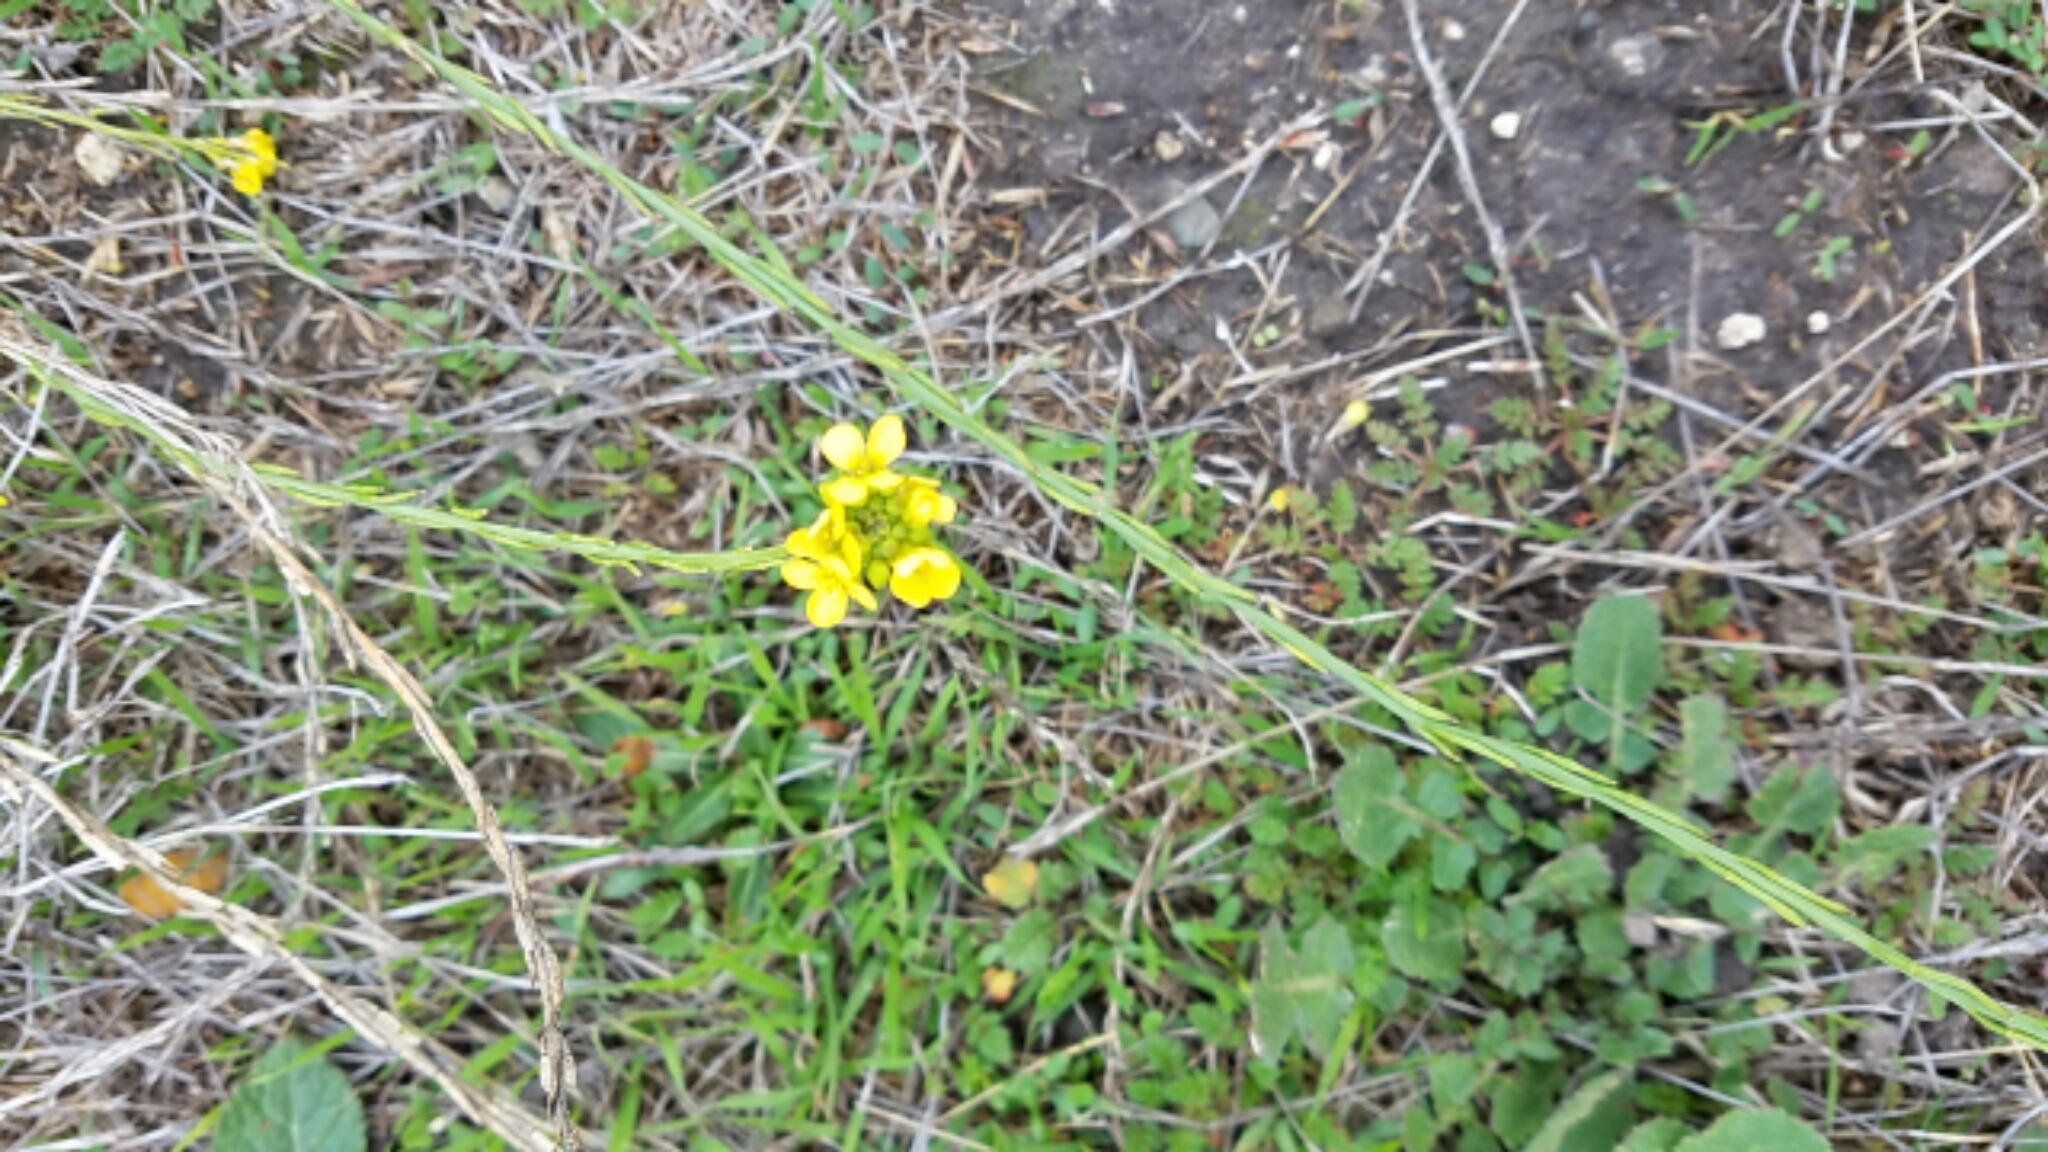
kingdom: Plantae
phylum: Tracheophyta
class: Magnoliopsida
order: Brassicales
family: Brassicaceae
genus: Hirschfeldia
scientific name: Hirschfeldia incana
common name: Hoary mustard
